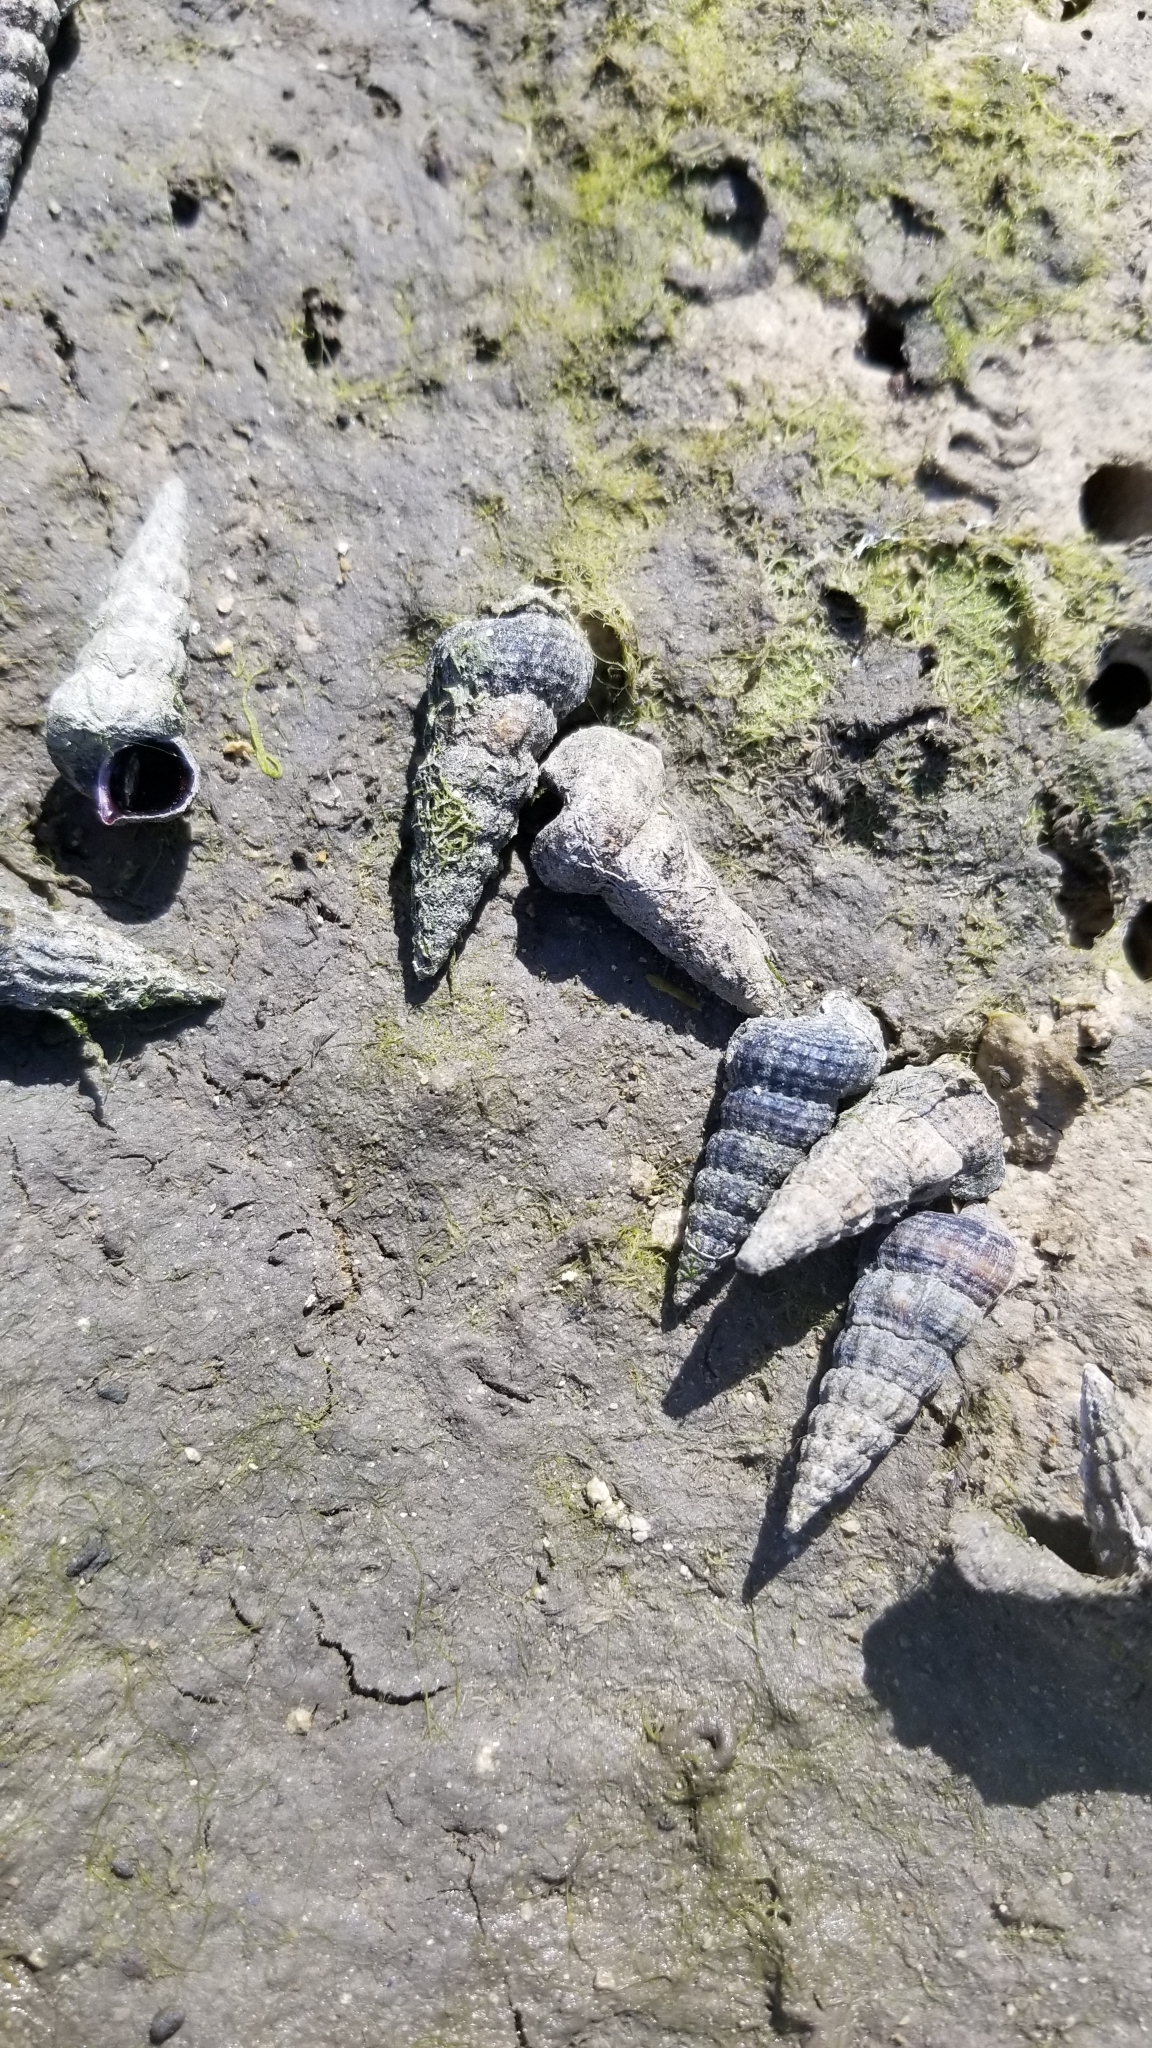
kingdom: Animalia
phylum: Mollusca
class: Gastropoda
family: Potamididae
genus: Cerithideopsis
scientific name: Cerithideopsis californica
